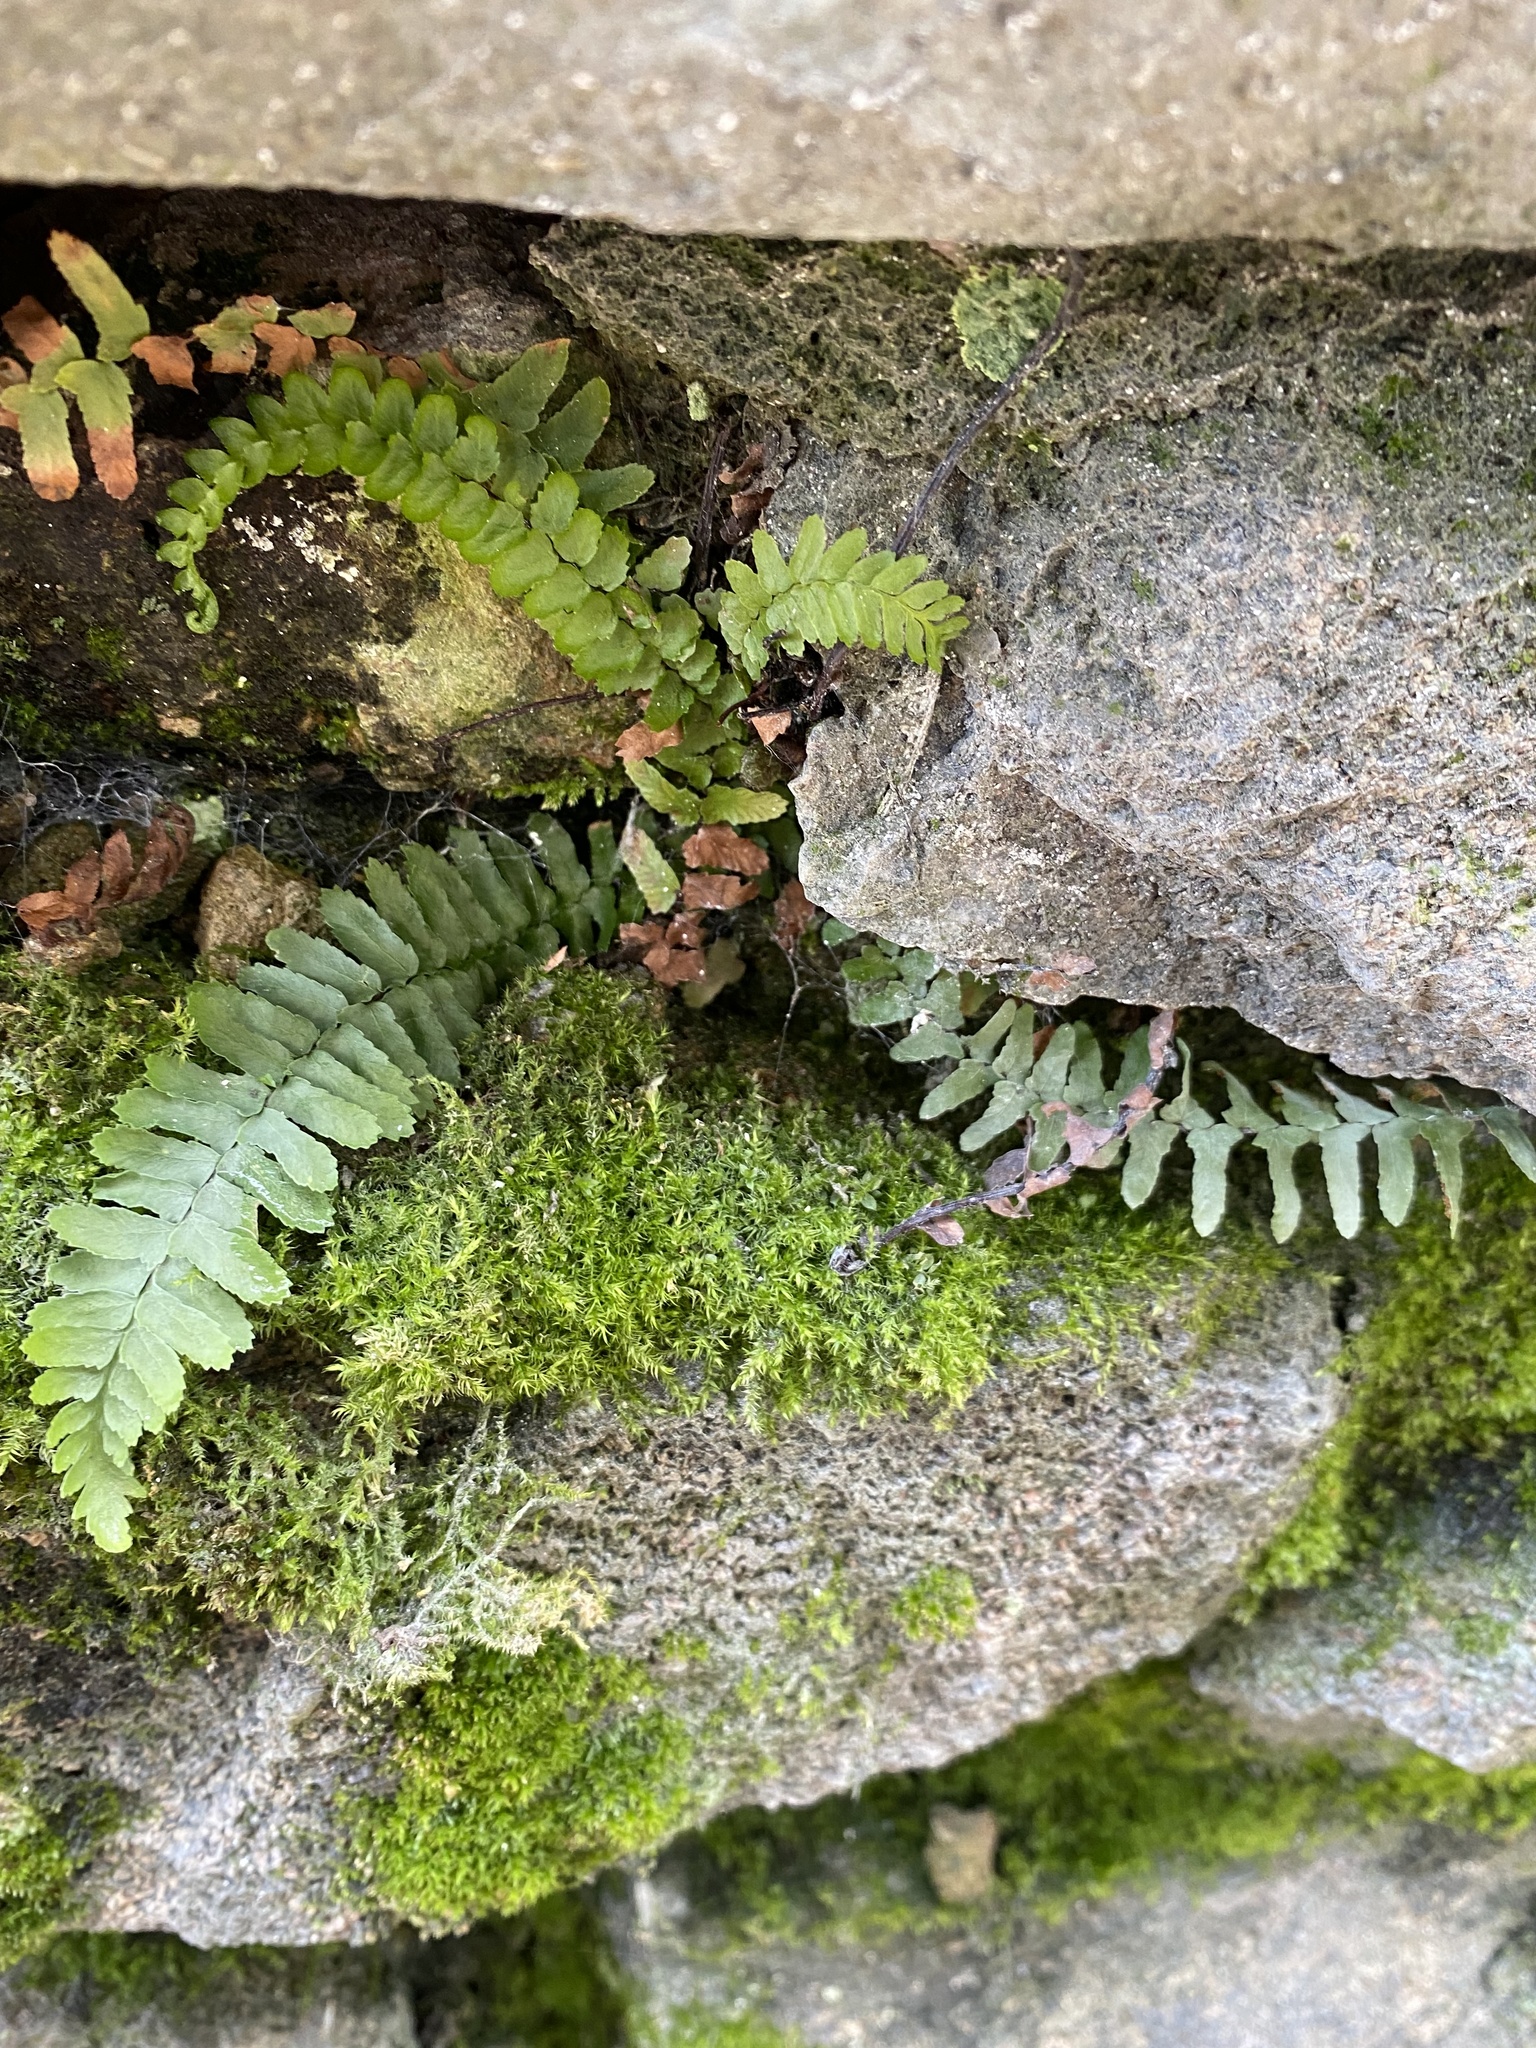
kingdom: Plantae
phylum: Tracheophyta
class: Polypodiopsida
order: Polypodiales
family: Aspleniaceae
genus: Asplenium
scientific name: Asplenium platyneuron
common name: Ebony spleenwort
